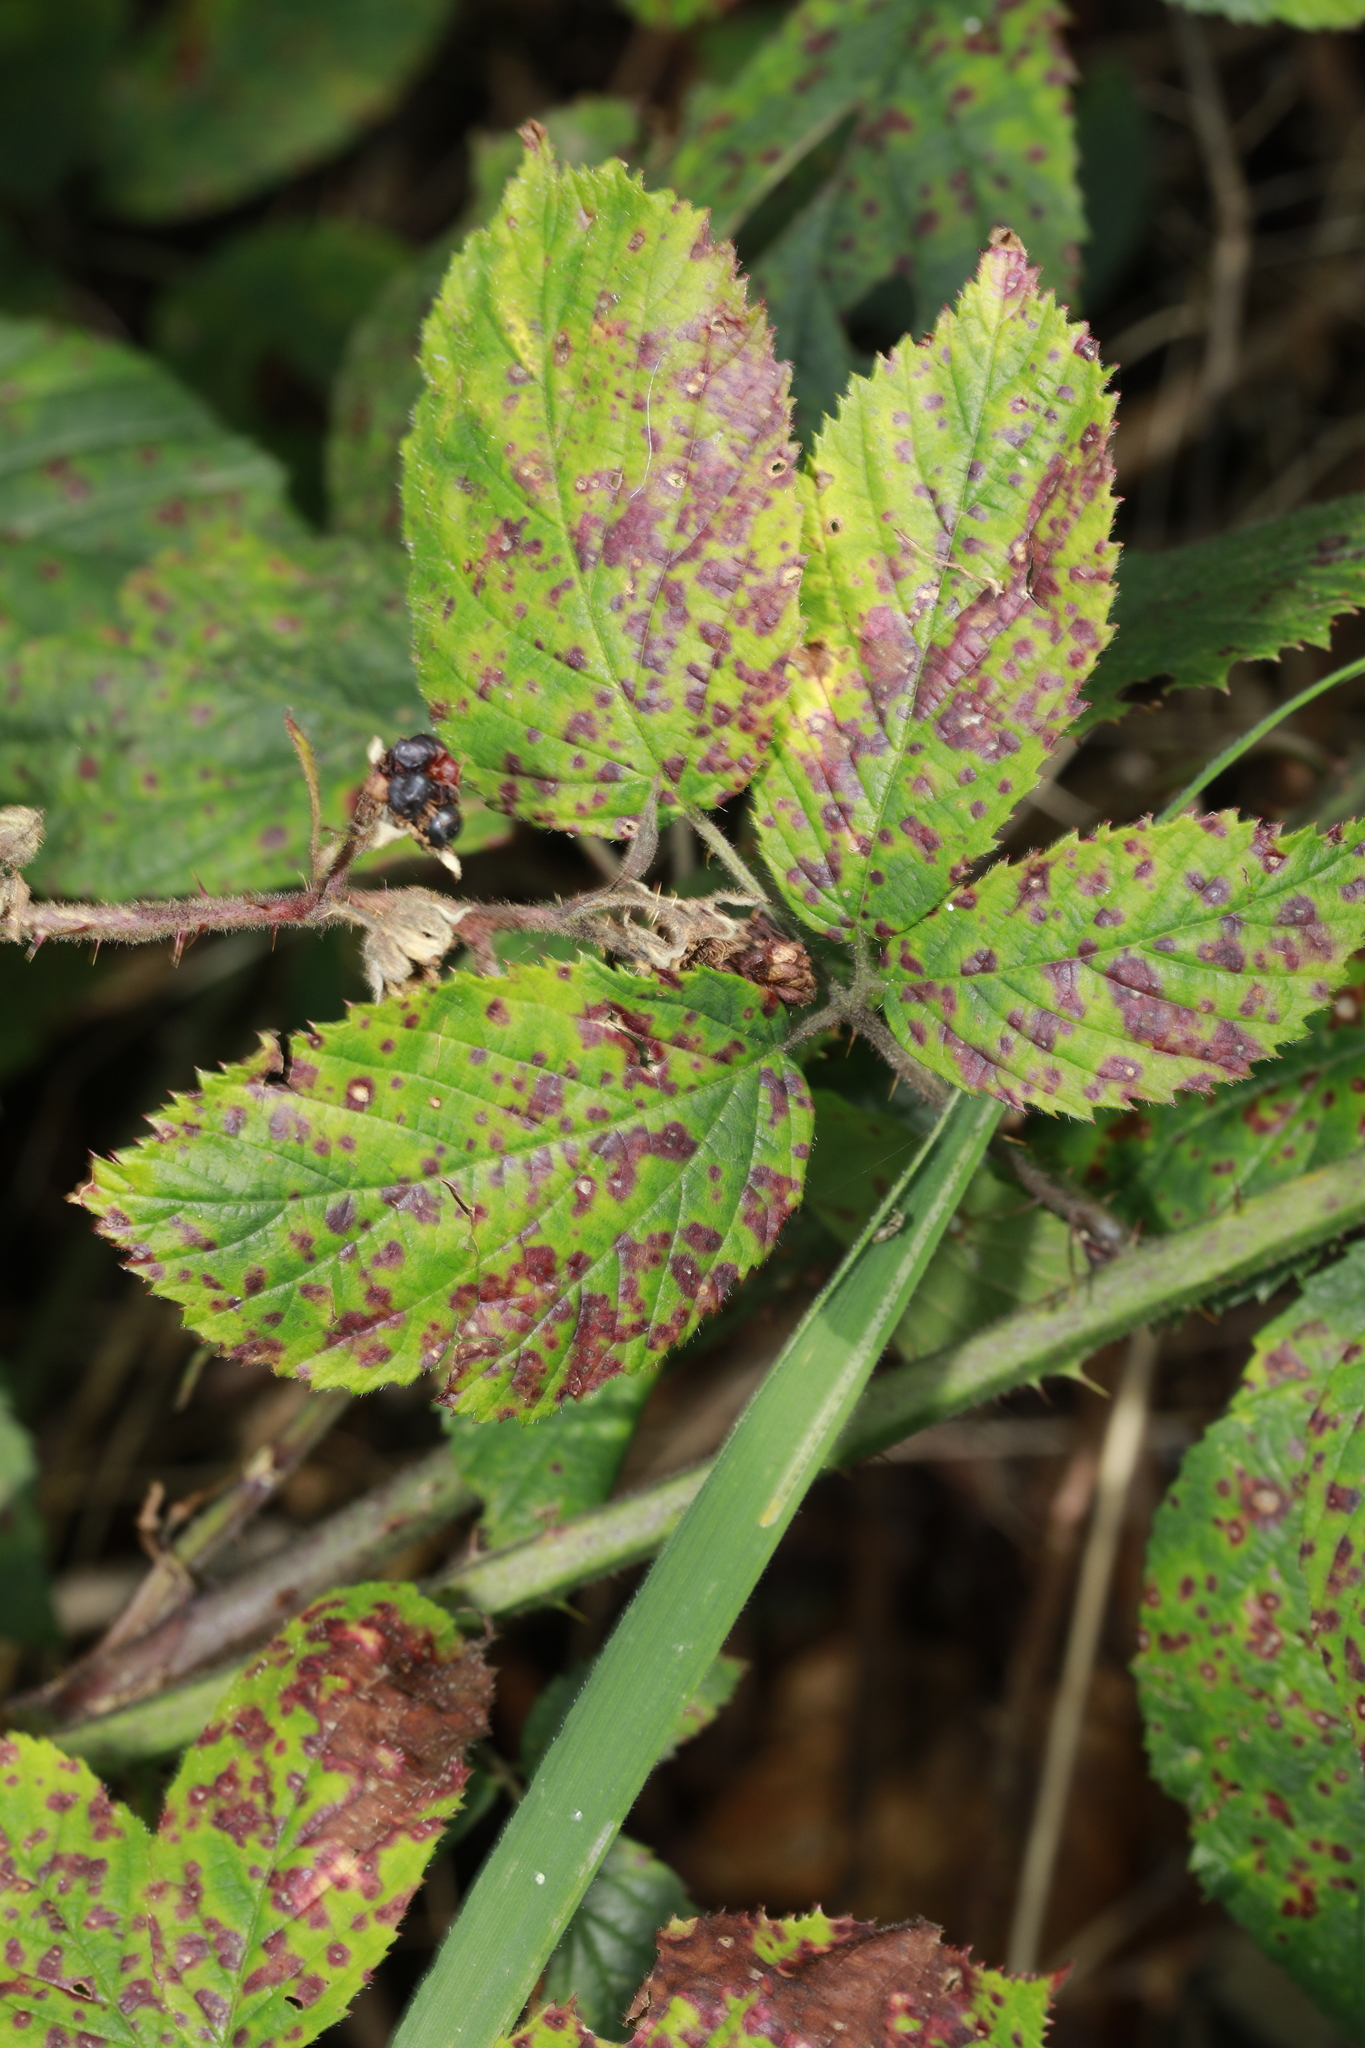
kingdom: Fungi
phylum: Basidiomycota
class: Pucciniomycetes
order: Pucciniales
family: Phragmidiaceae
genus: Phragmidium
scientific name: Phragmidium violaceum
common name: Violet bramble rust
